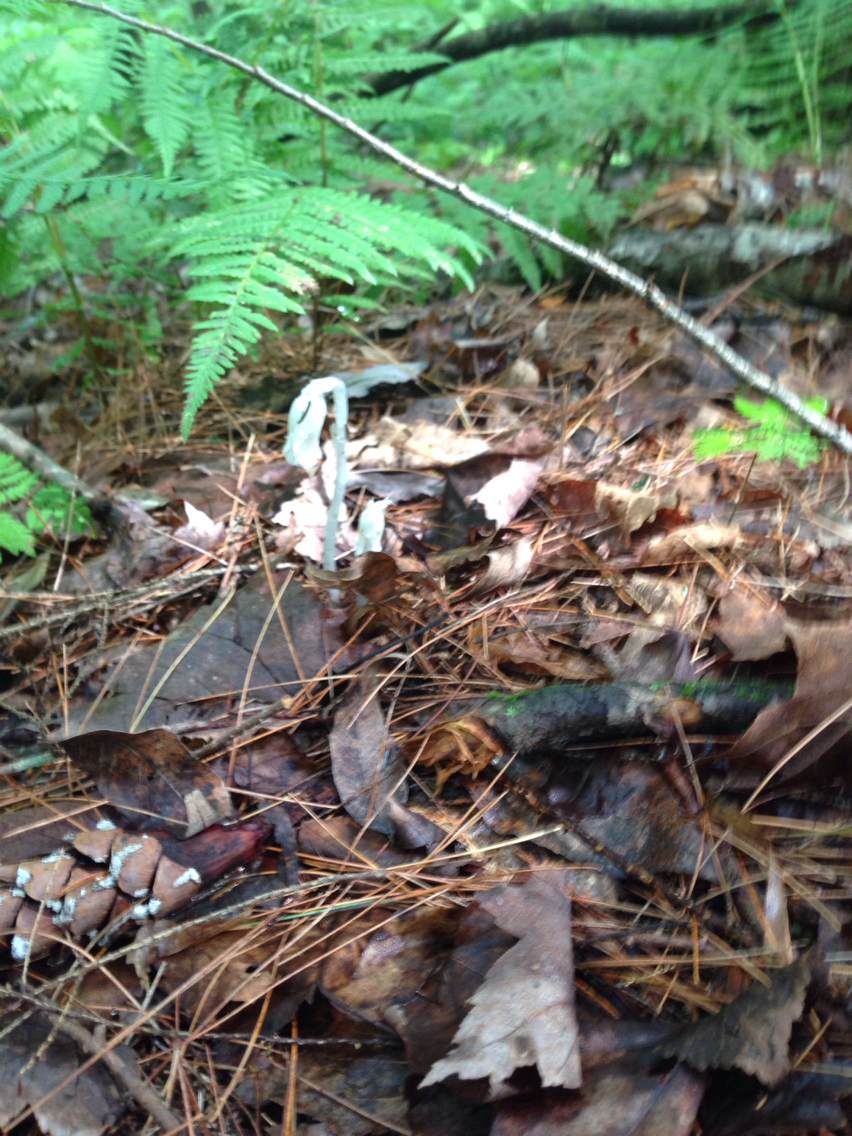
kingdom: Plantae
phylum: Tracheophyta
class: Magnoliopsida
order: Ericales
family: Ericaceae
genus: Monotropa
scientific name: Monotropa uniflora
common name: Convulsion root
